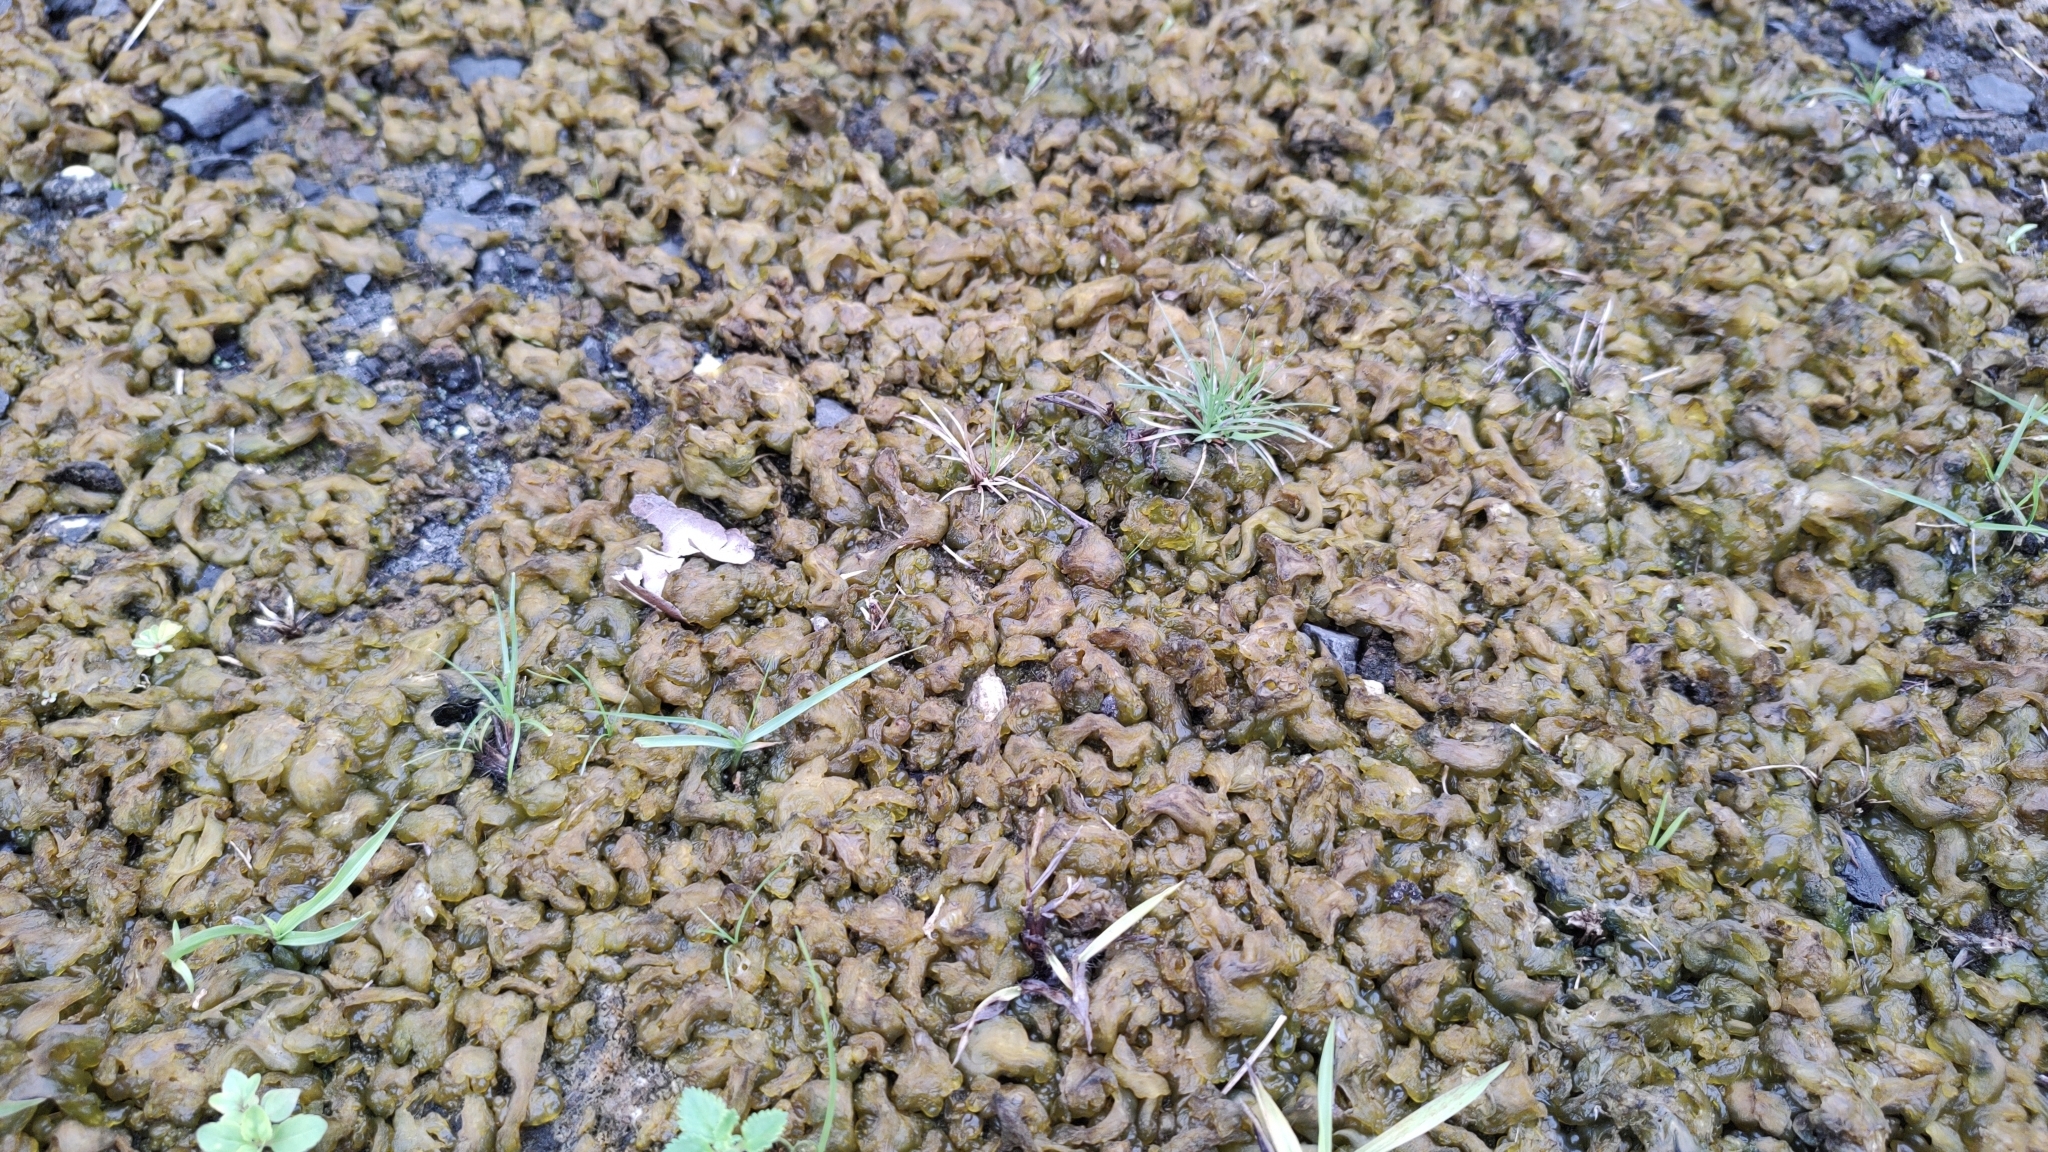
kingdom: Bacteria
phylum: Cyanobacteria
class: Cyanobacteriia
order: Cyanobacteriales
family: Nostocaceae
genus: Nostoc
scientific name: Nostoc commune
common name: Star jelly
